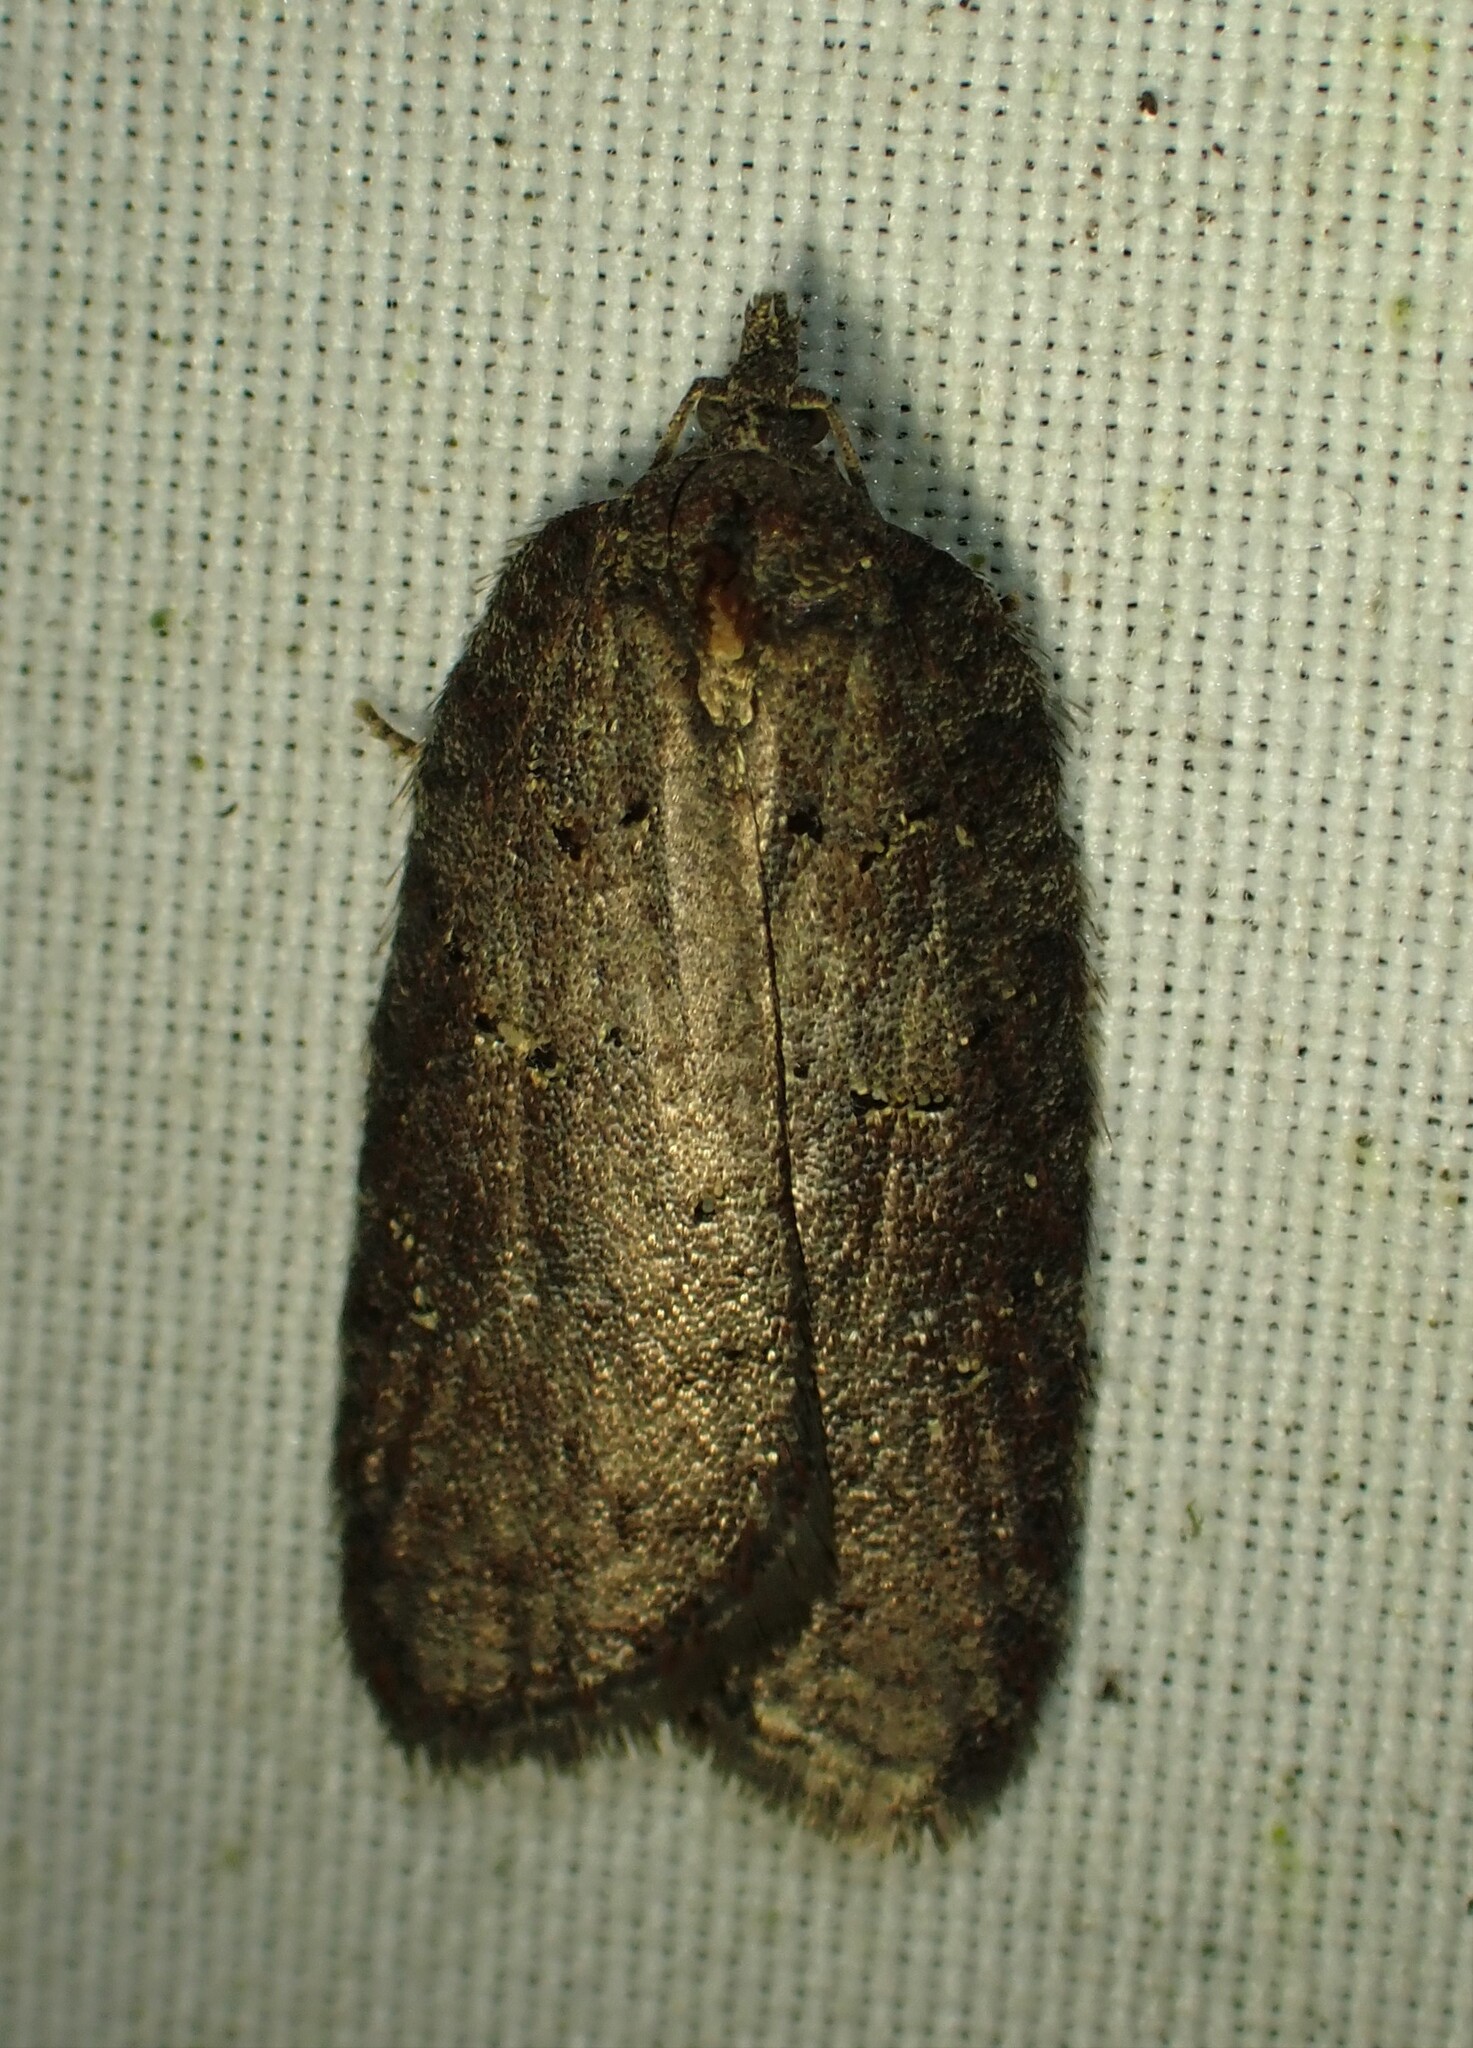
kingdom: Animalia
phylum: Arthropoda
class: Insecta
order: Lepidoptera
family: Tortricidae
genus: Acleris
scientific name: Acleris caliginosana
